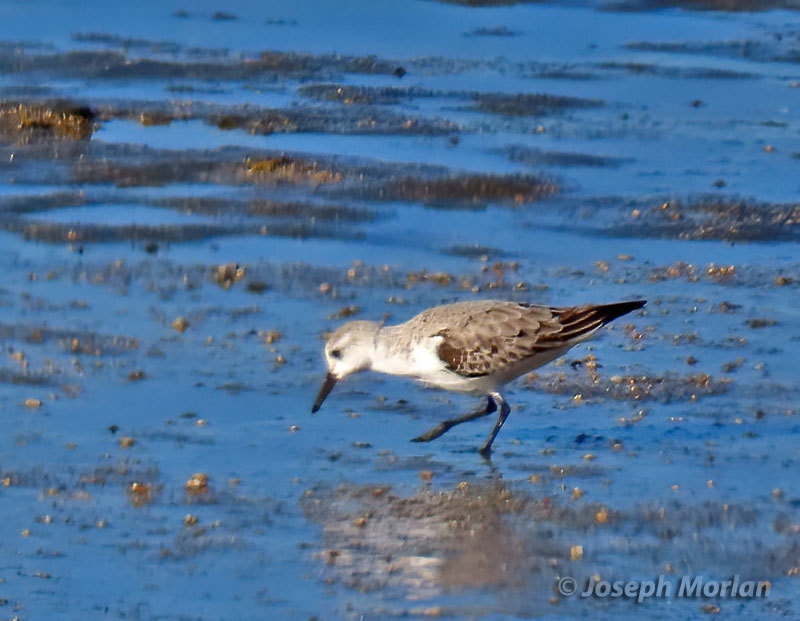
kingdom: Animalia
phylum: Chordata
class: Aves
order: Charadriiformes
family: Scolopacidae
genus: Calidris
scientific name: Calidris alba
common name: Sanderling
